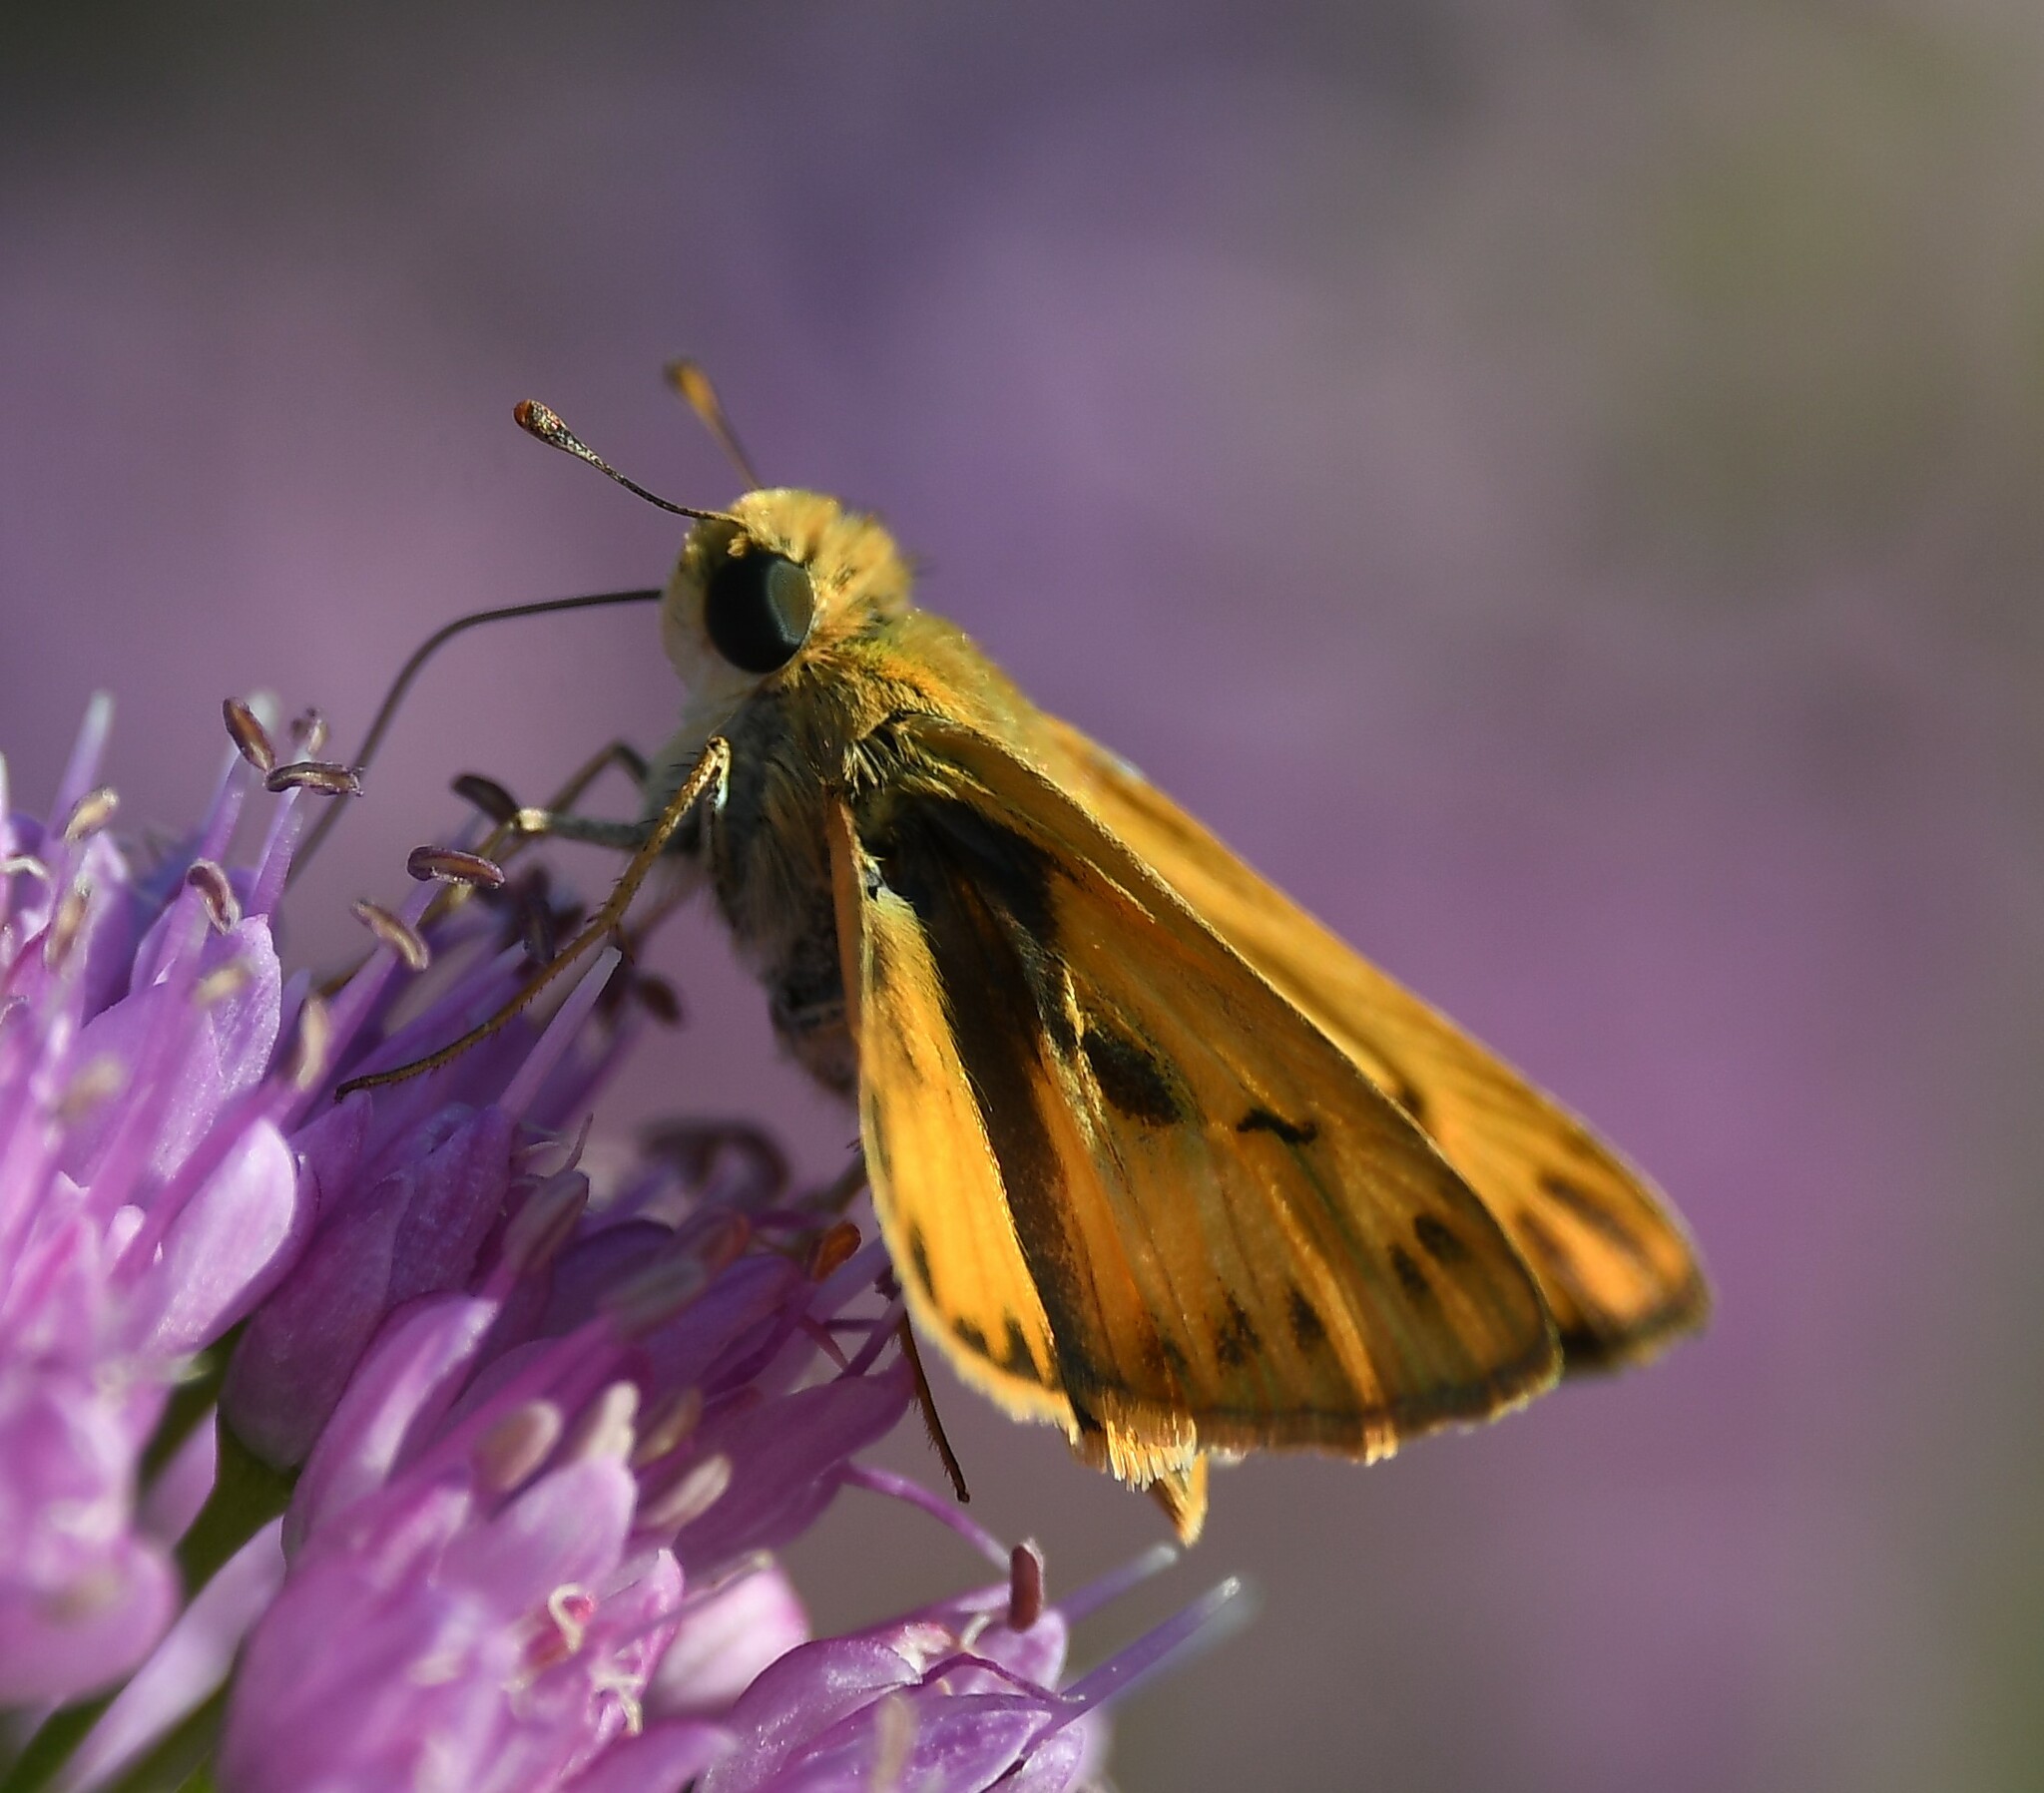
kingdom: Animalia
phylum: Arthropoda
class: Insecta
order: Lepidoptera
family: Hesperiidae
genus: Hylephila
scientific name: Hylephila phyleus
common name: Fiery skipper
